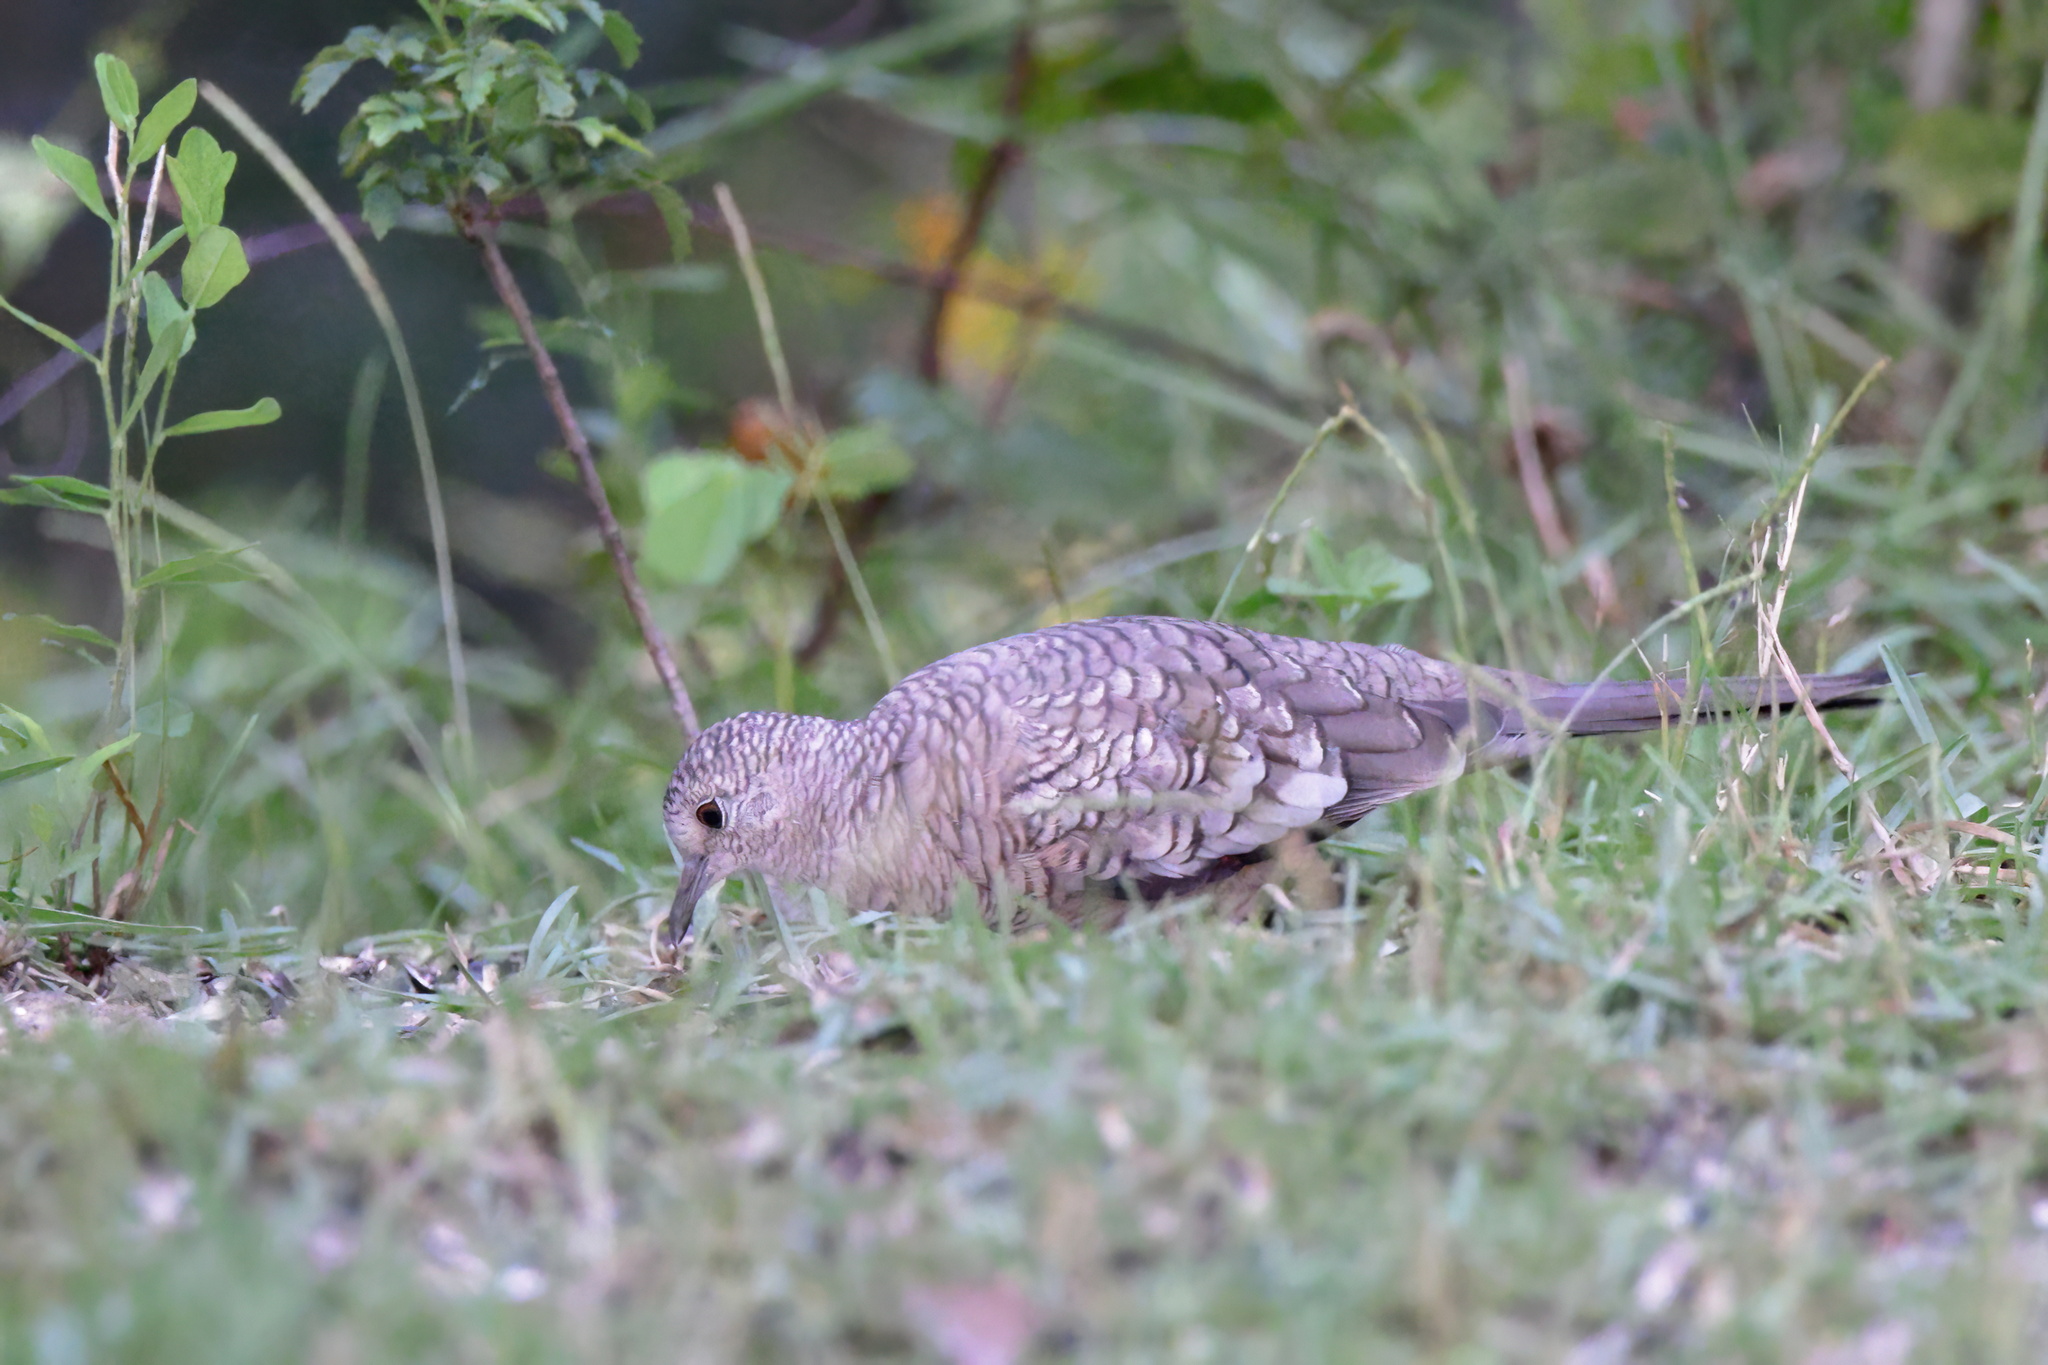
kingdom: Animalia
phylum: Chordata
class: Aves
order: Columbiformes
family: Columbidae
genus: Columbina
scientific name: Columbina inca
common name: Inca dove
